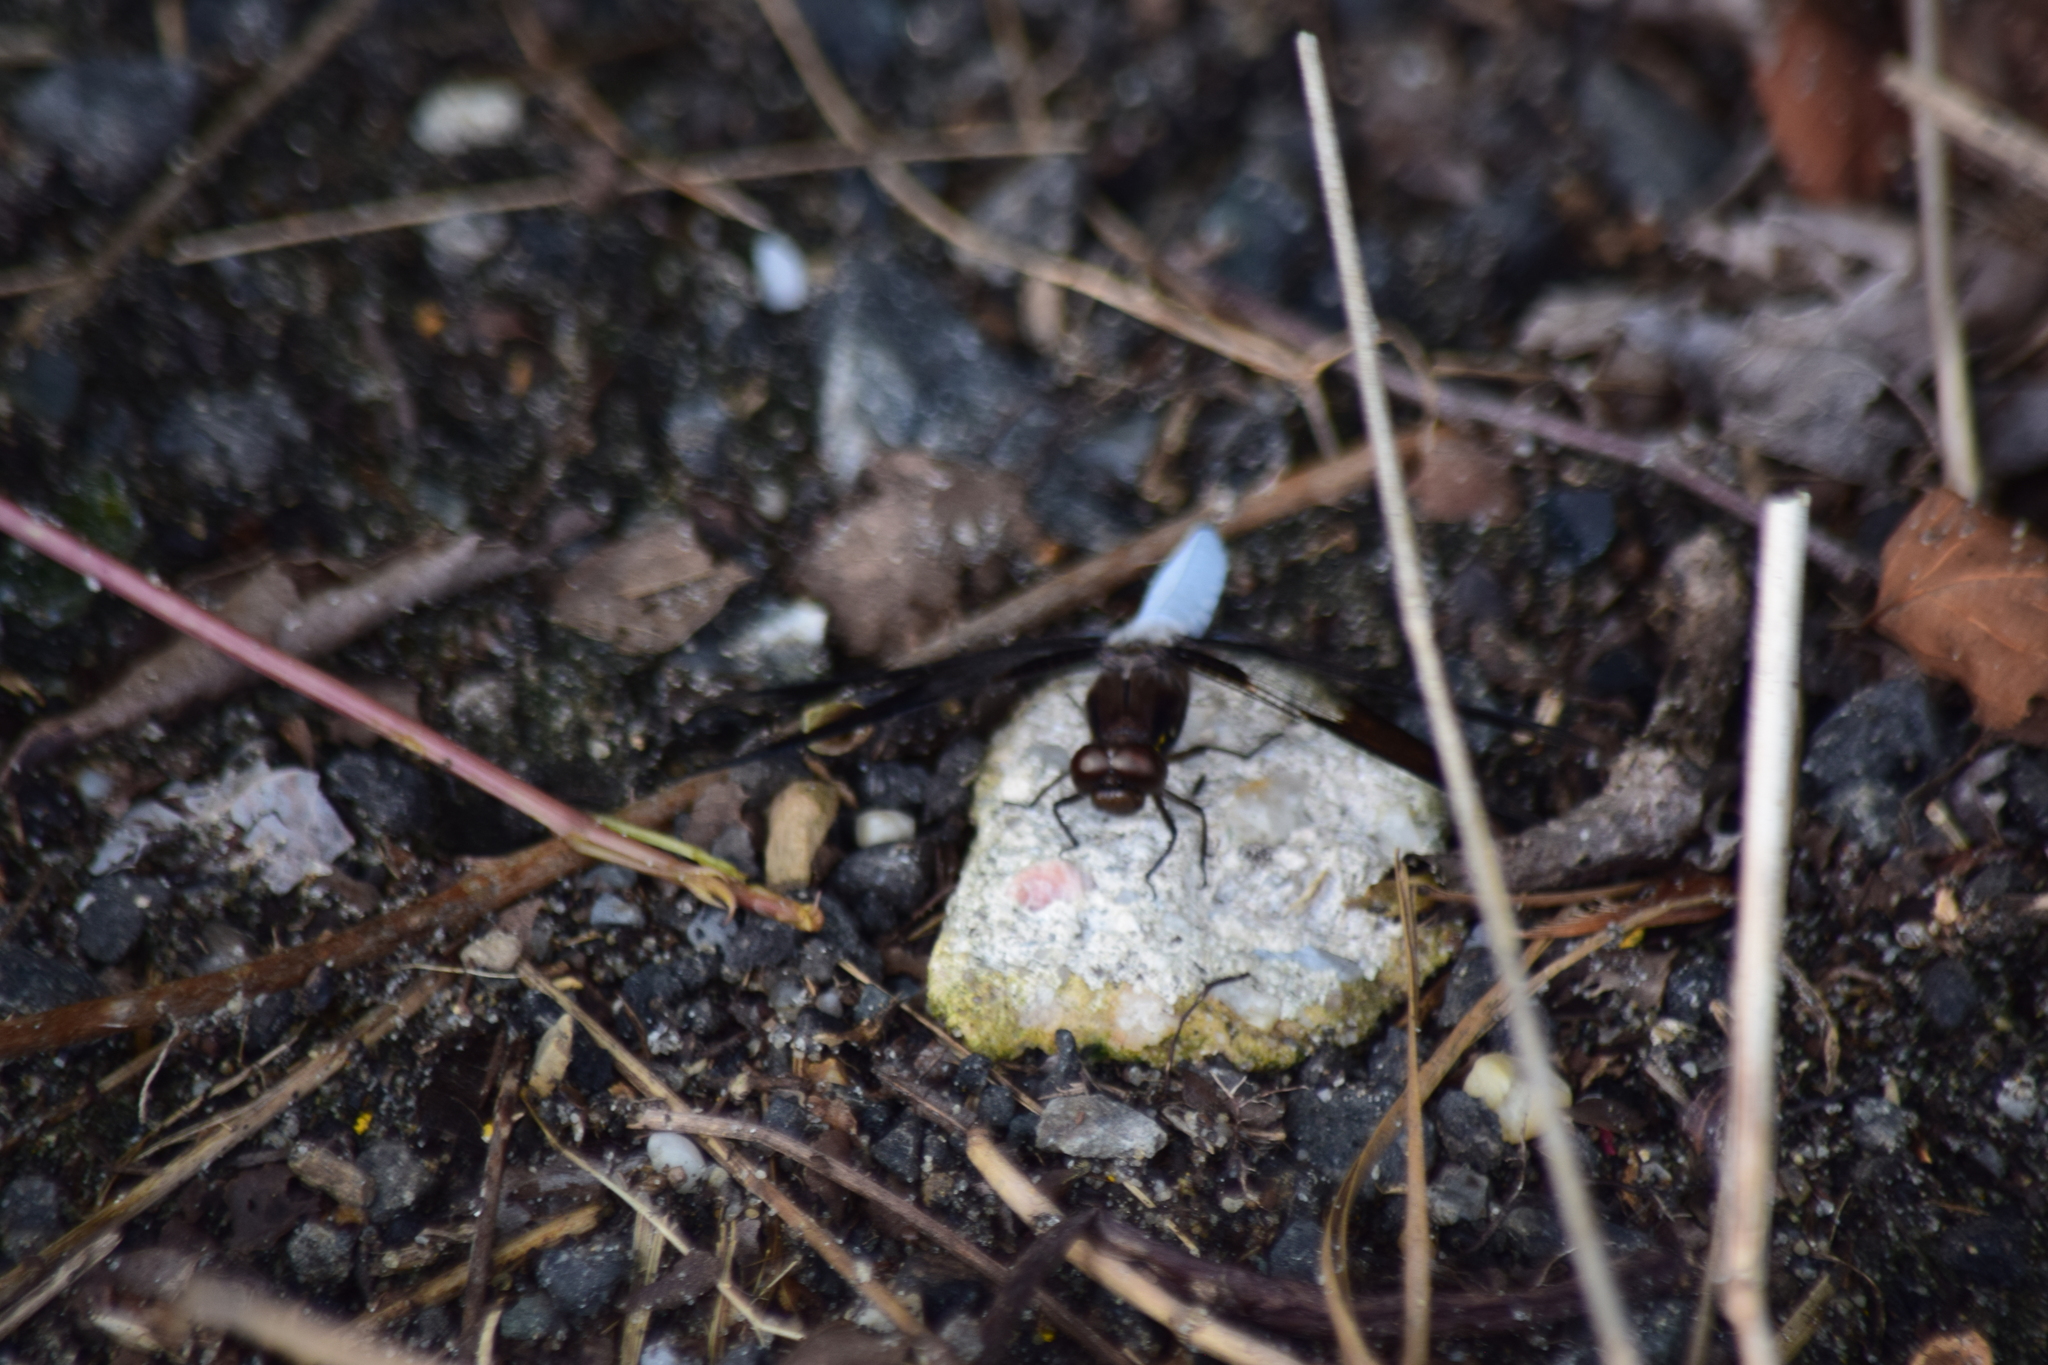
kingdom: Animalia
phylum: Arthropoda
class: Insecta
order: Odonata
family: Libellulidae
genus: Plathemis
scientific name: Plathemis lydia
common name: Common whitetail
